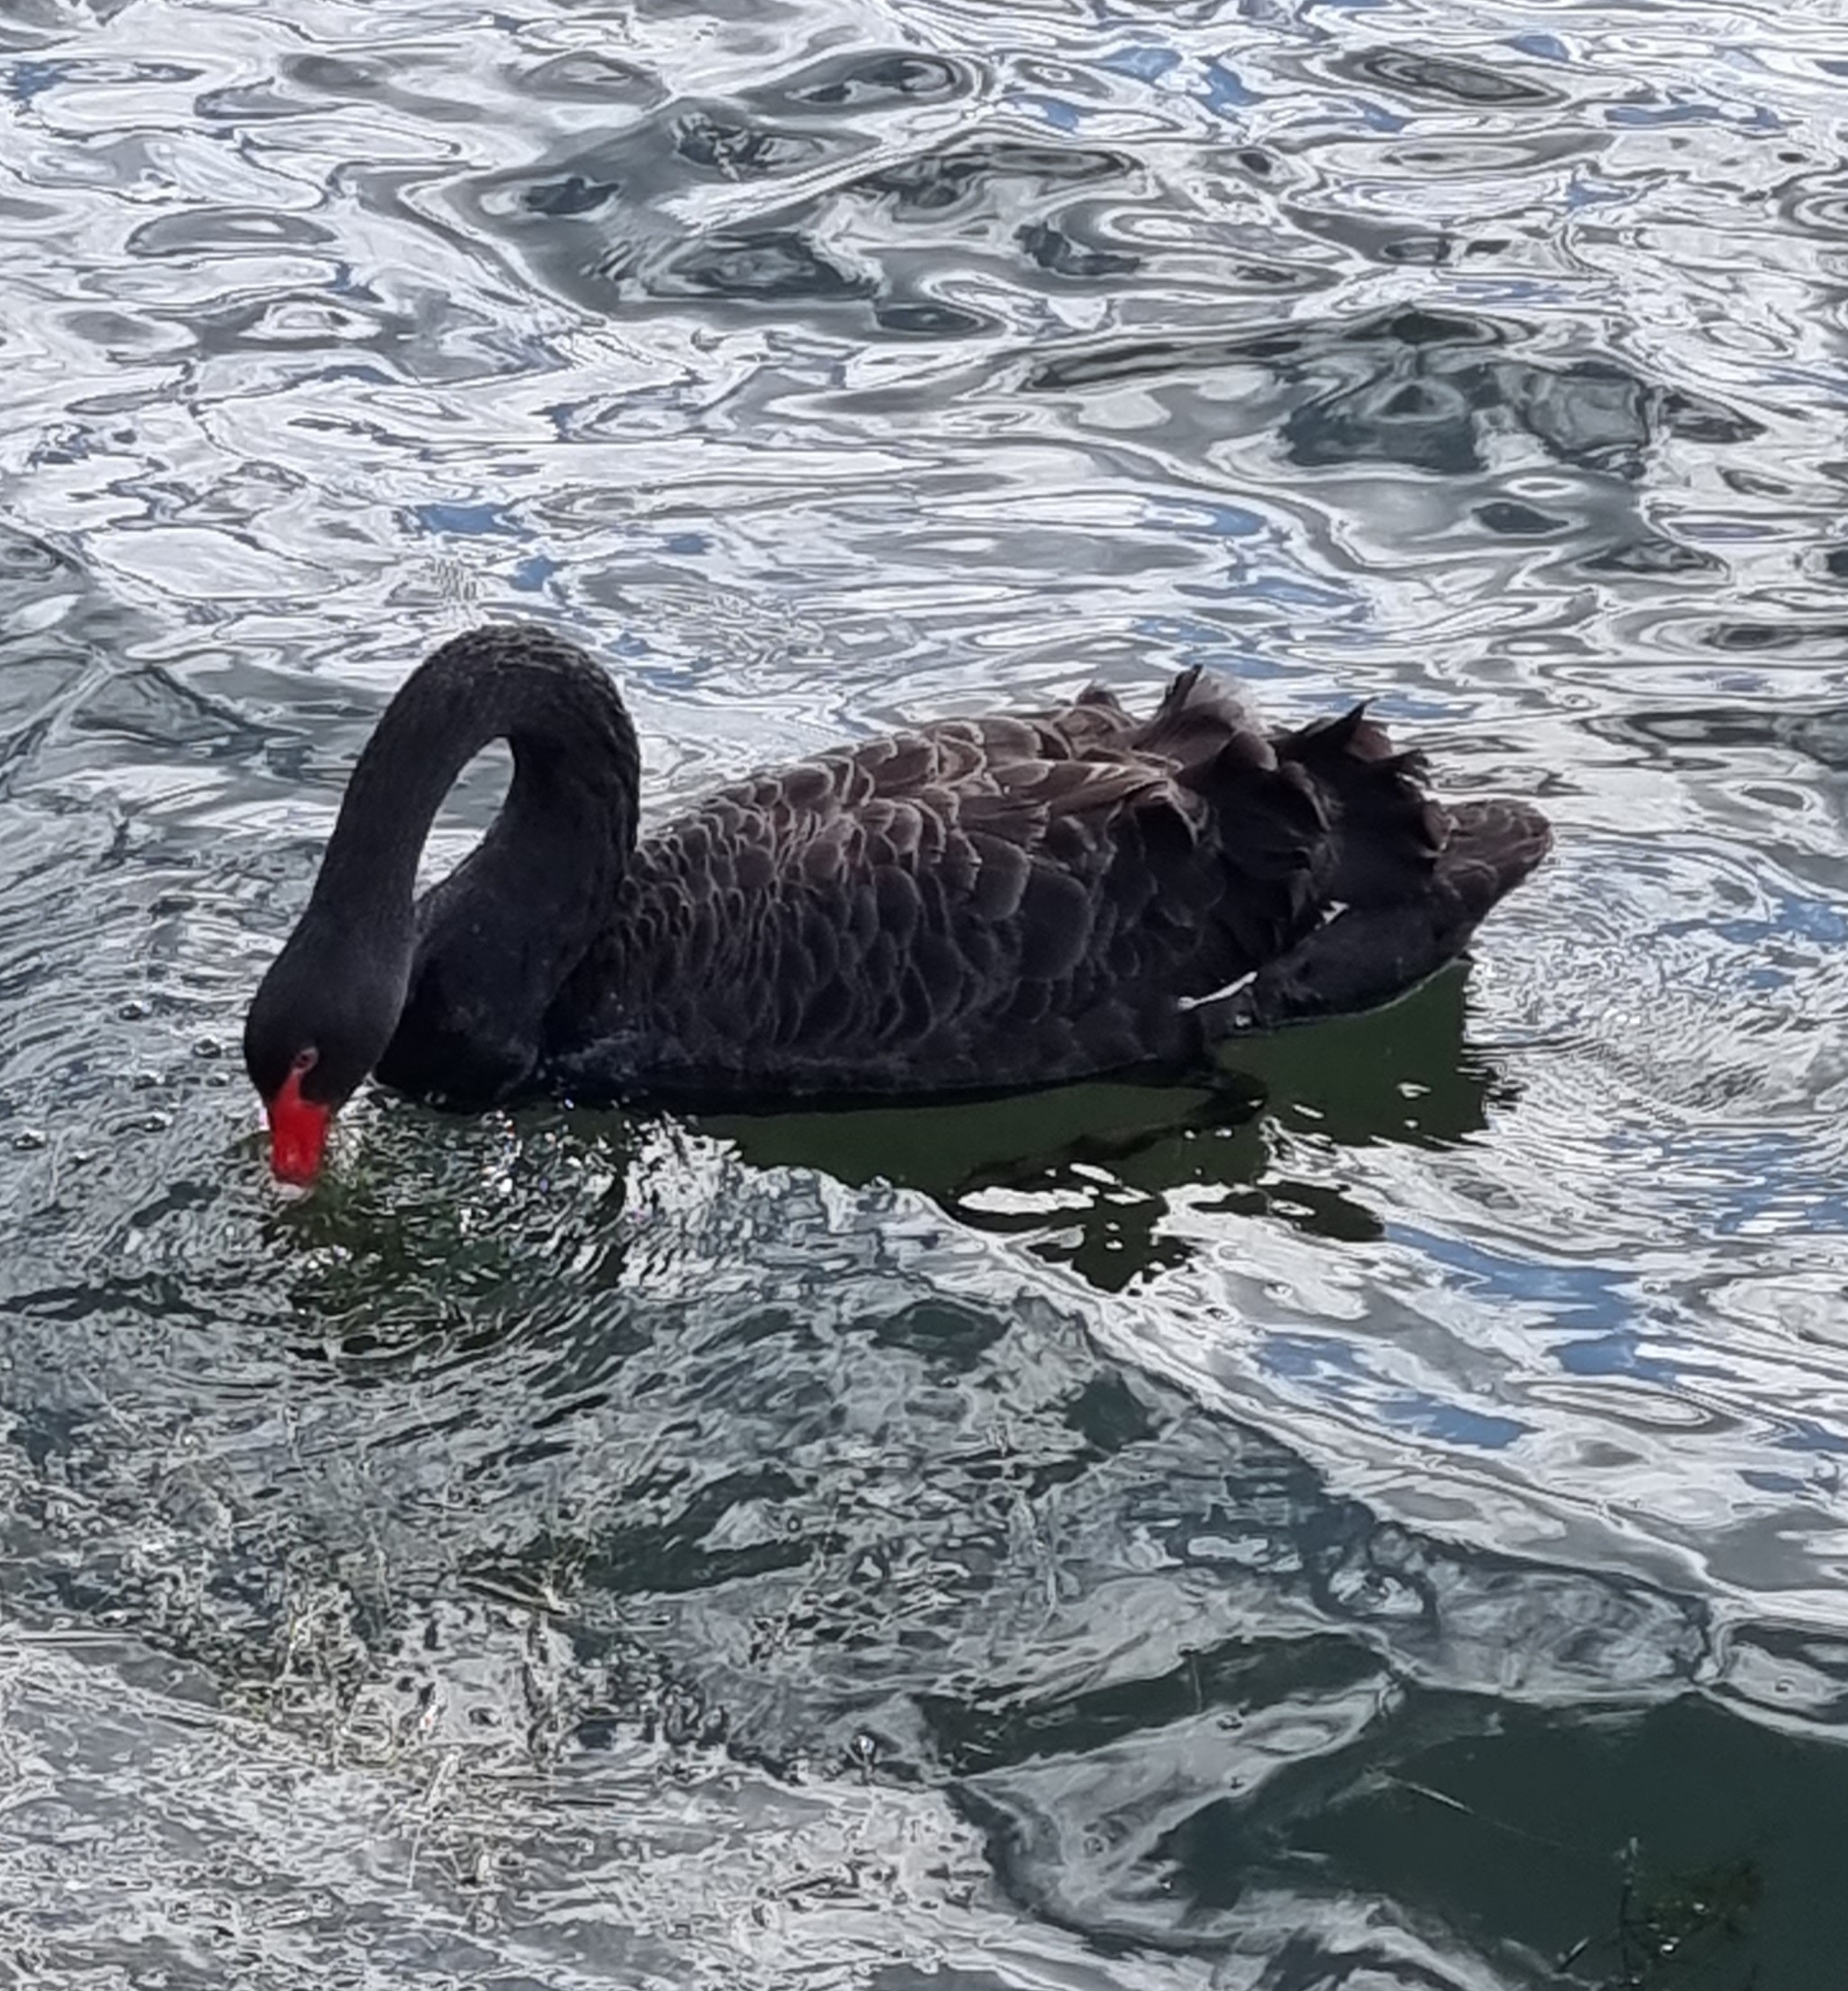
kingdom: Animalia
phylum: Chordata
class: Aves
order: Anseriformes
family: Anatidae
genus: Cygnus
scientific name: Cygnus atratus
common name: Black swan
